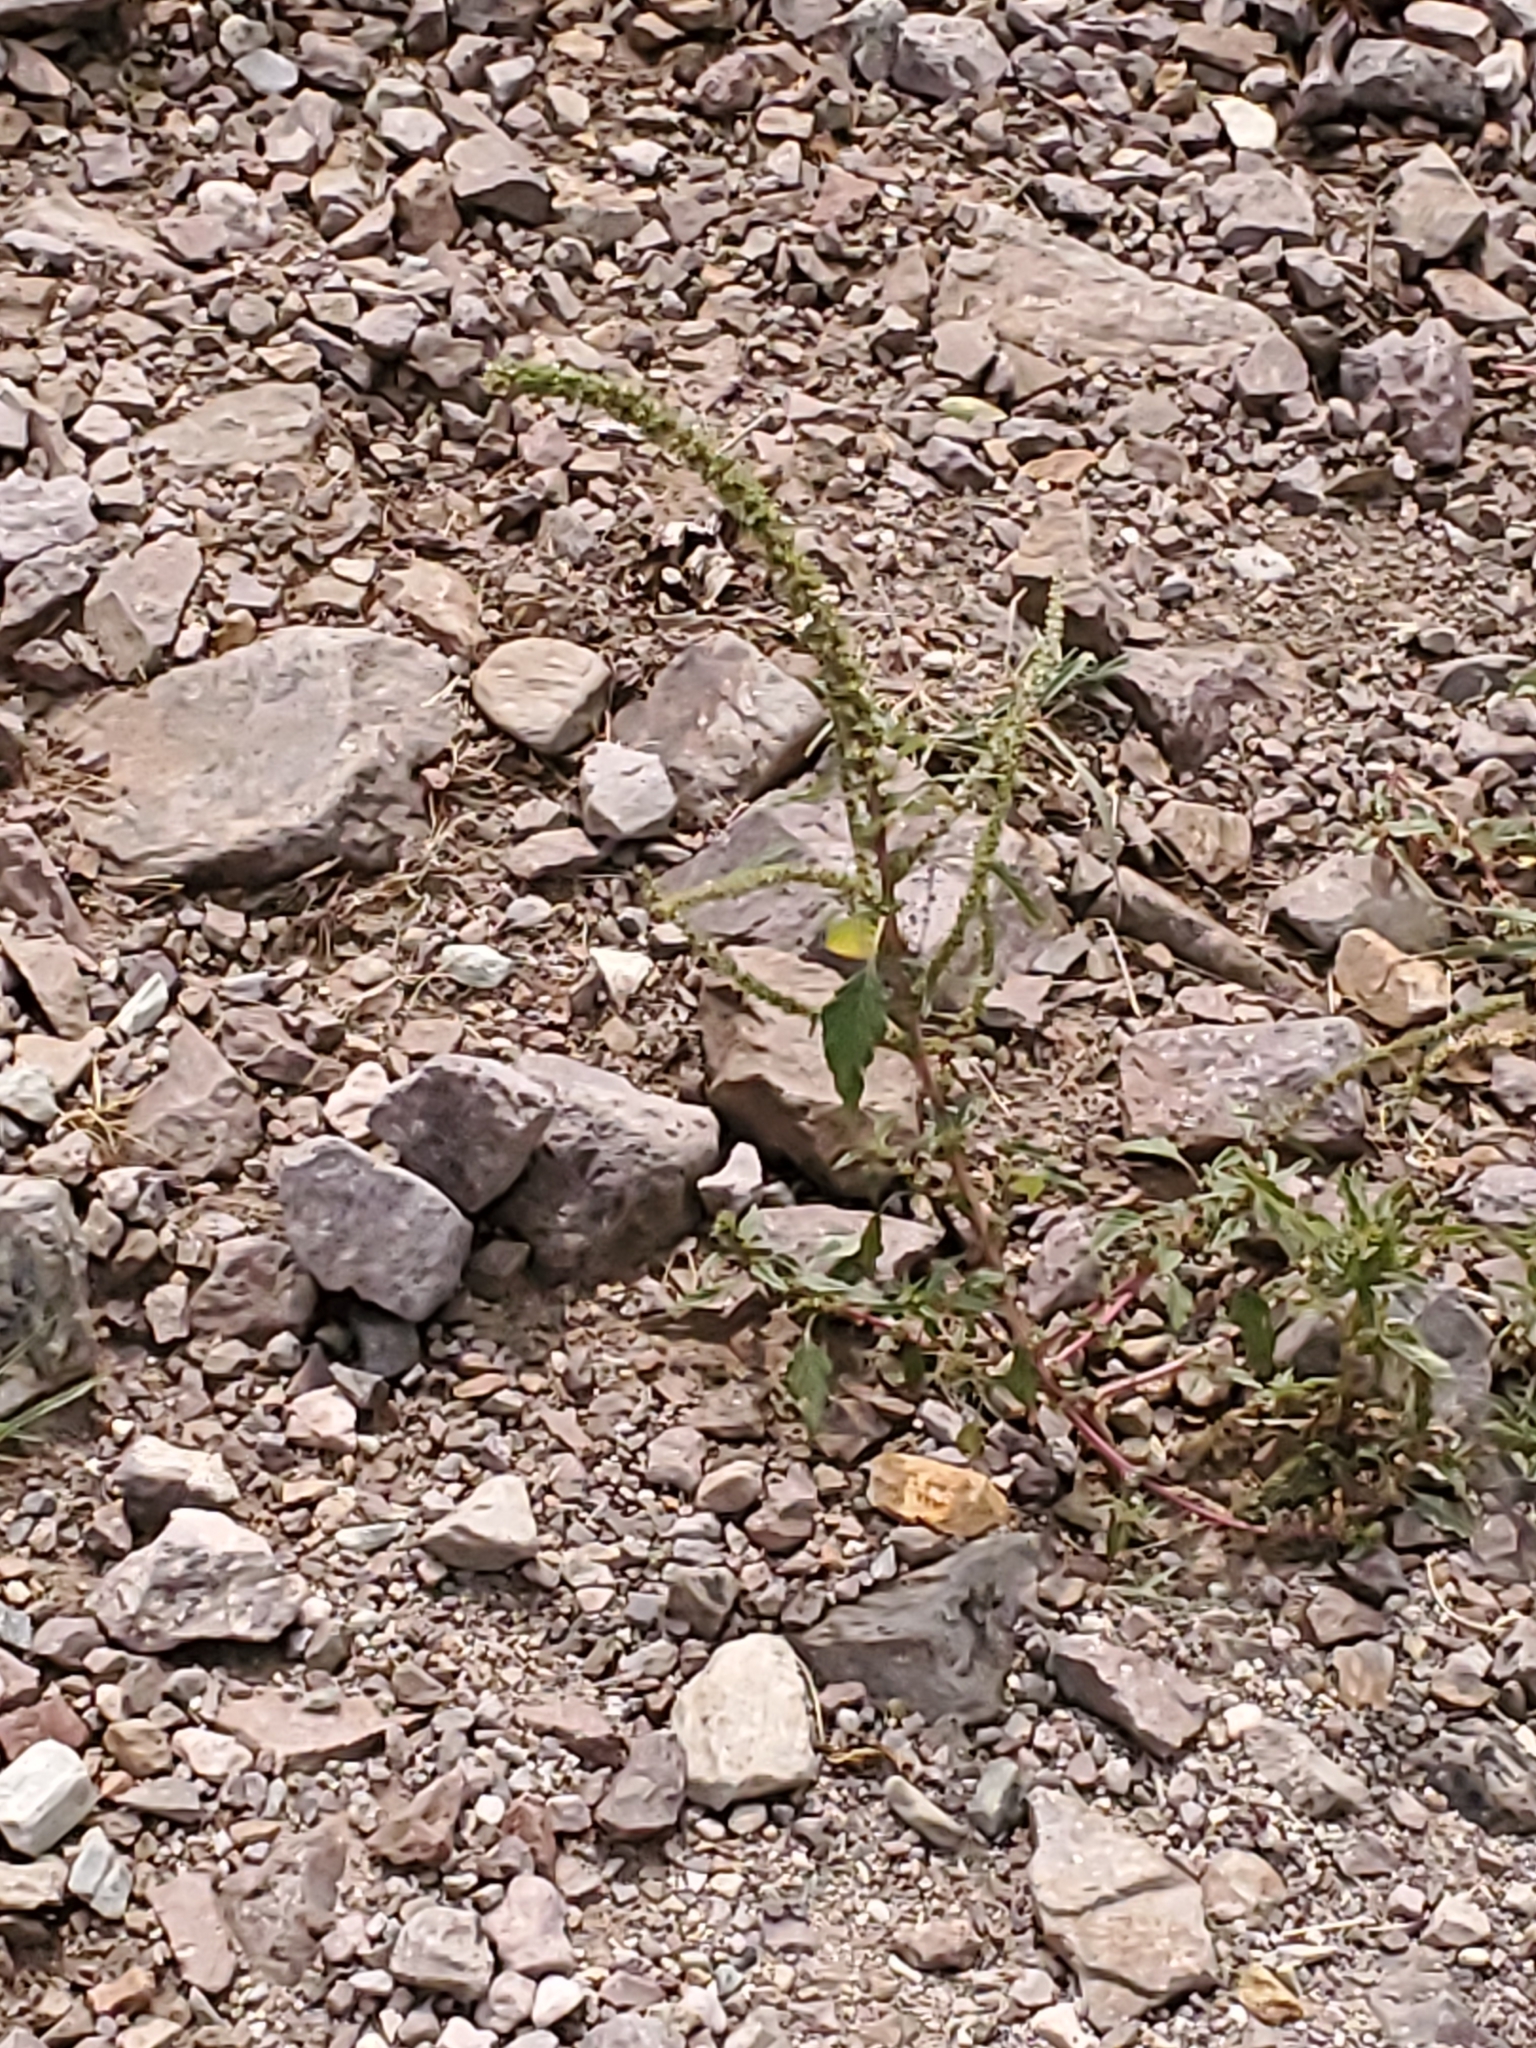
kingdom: Plantae
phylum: Tracheophyta
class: Magnoliopsida
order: Caryophyllales
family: Amaranthaceae
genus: Amaranthus
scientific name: Amaranthus palmeri
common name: Dioecious amaranth
